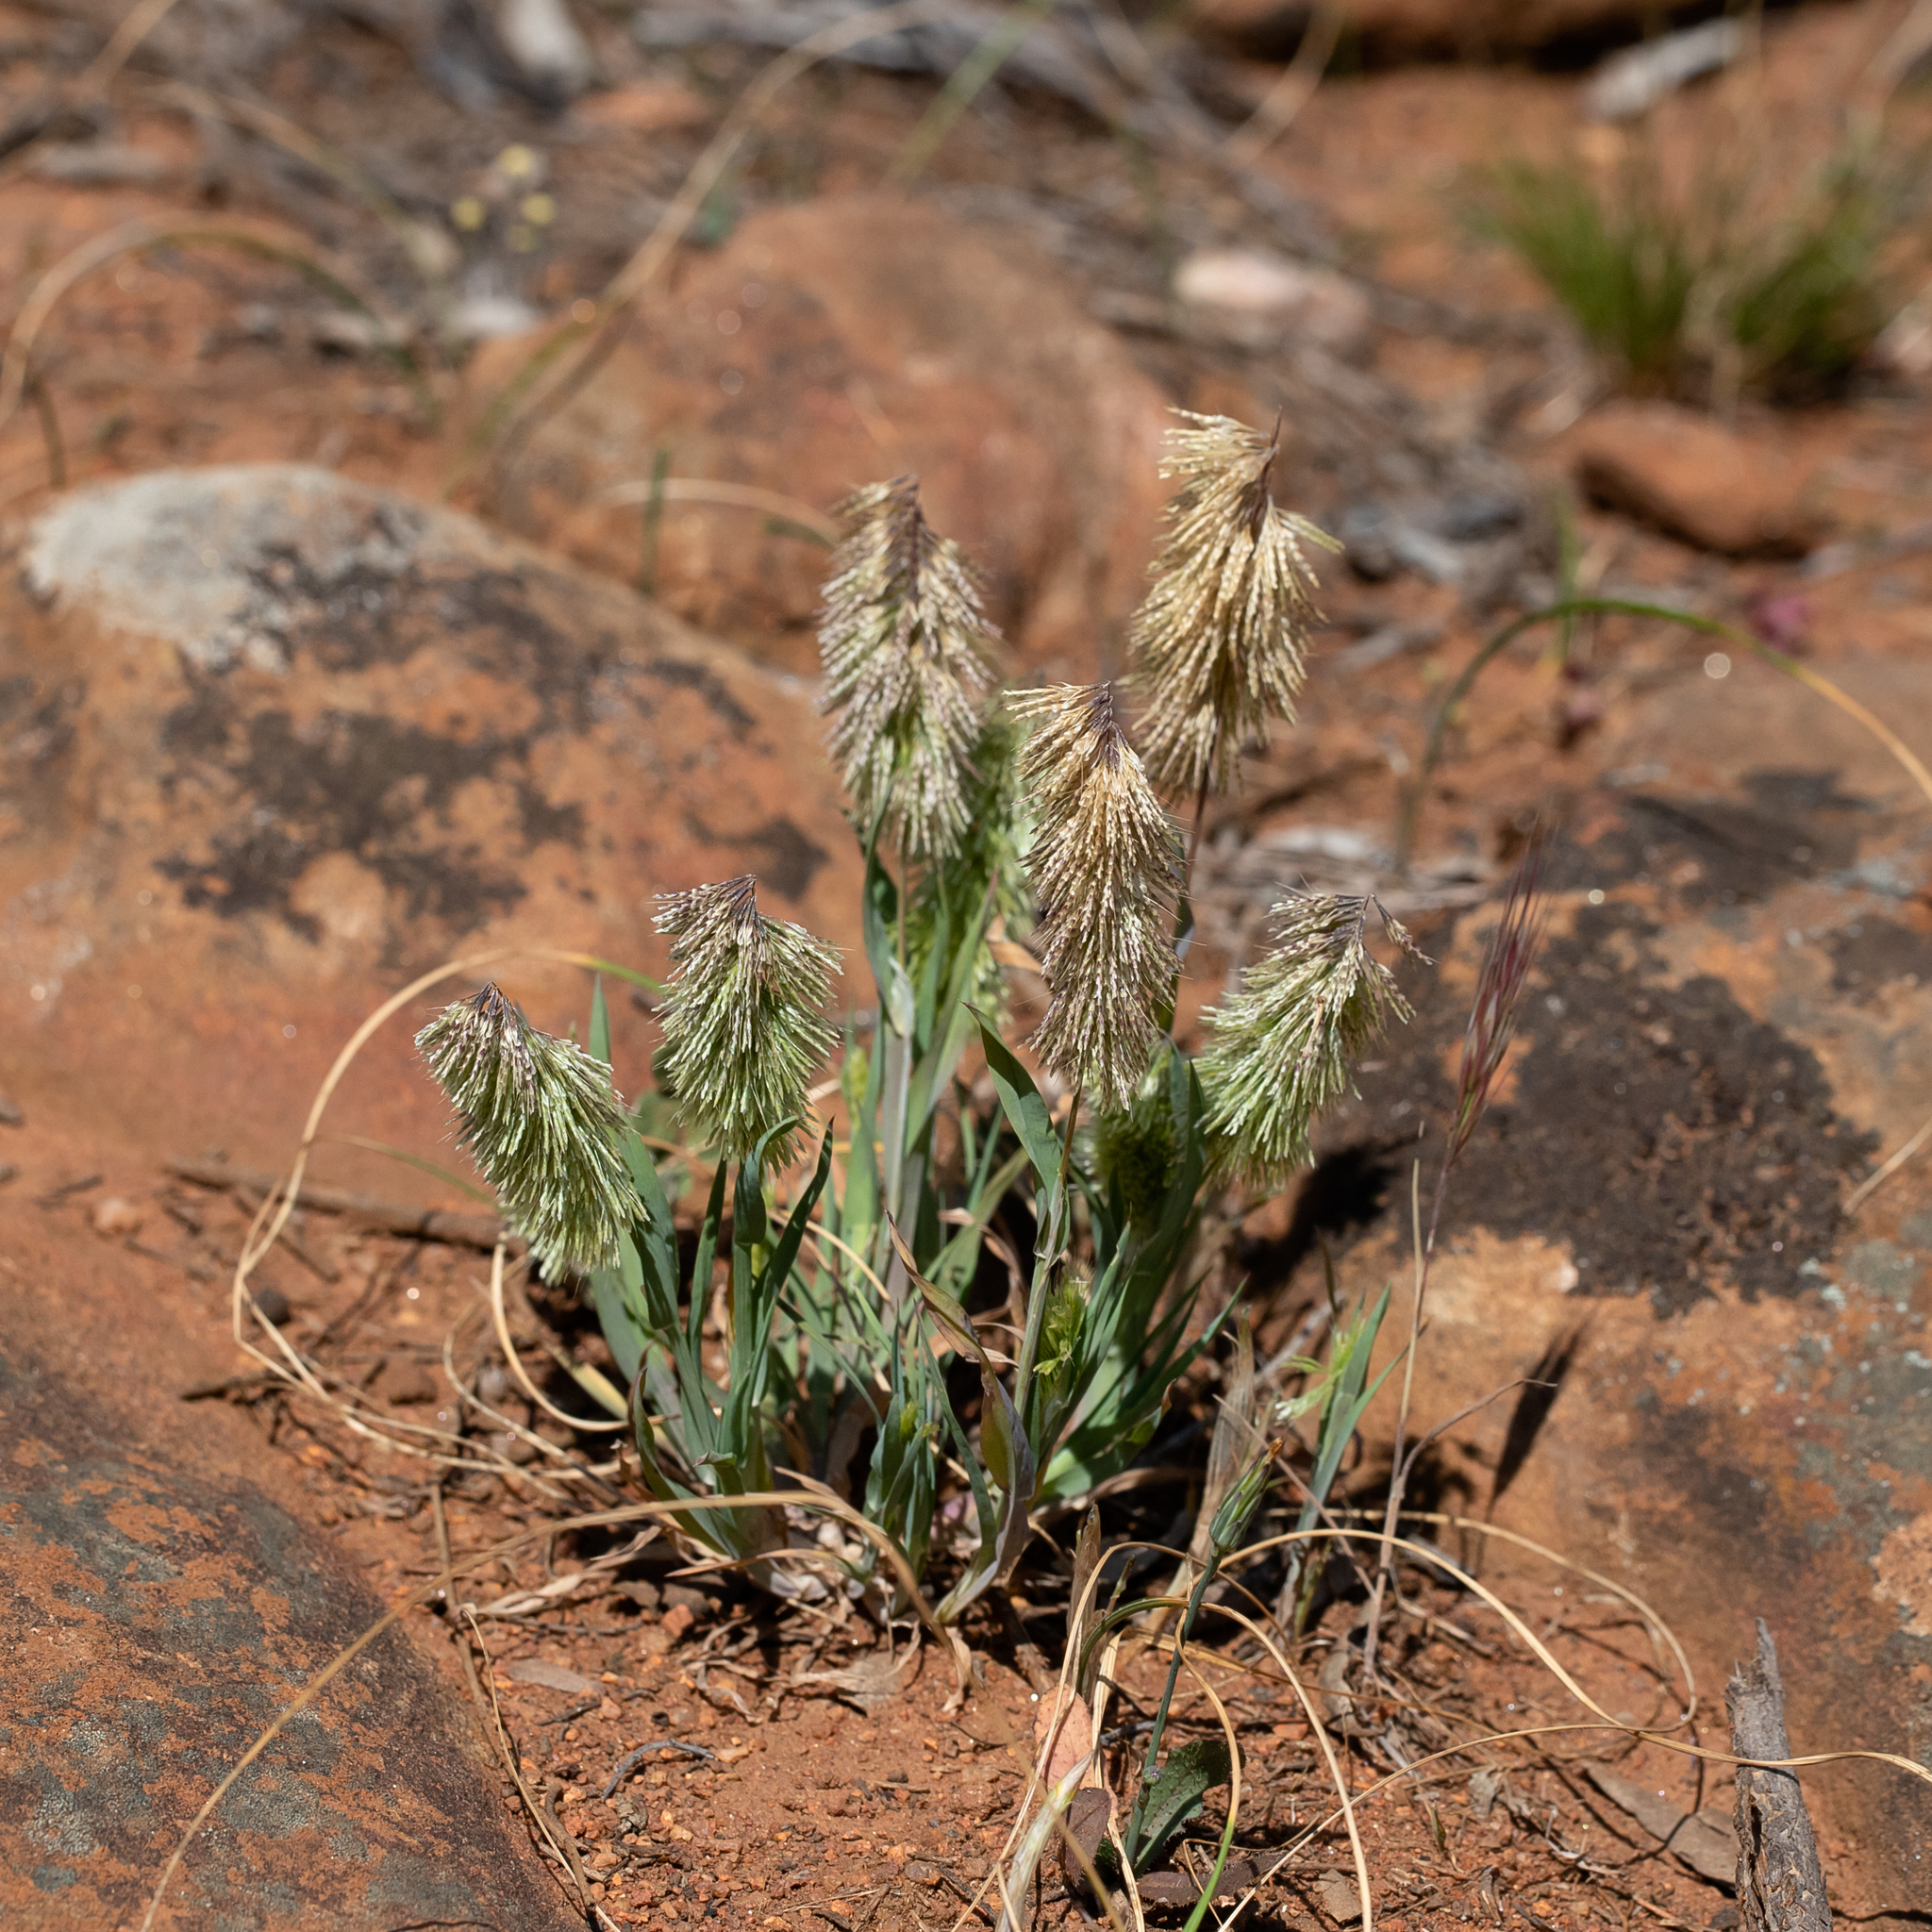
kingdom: Plantae
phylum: Tracheophyta
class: Liliopsida
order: Poales
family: Poaceae
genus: Lamarckia
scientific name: Lamarckia aurea
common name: Golden dog's-tail
